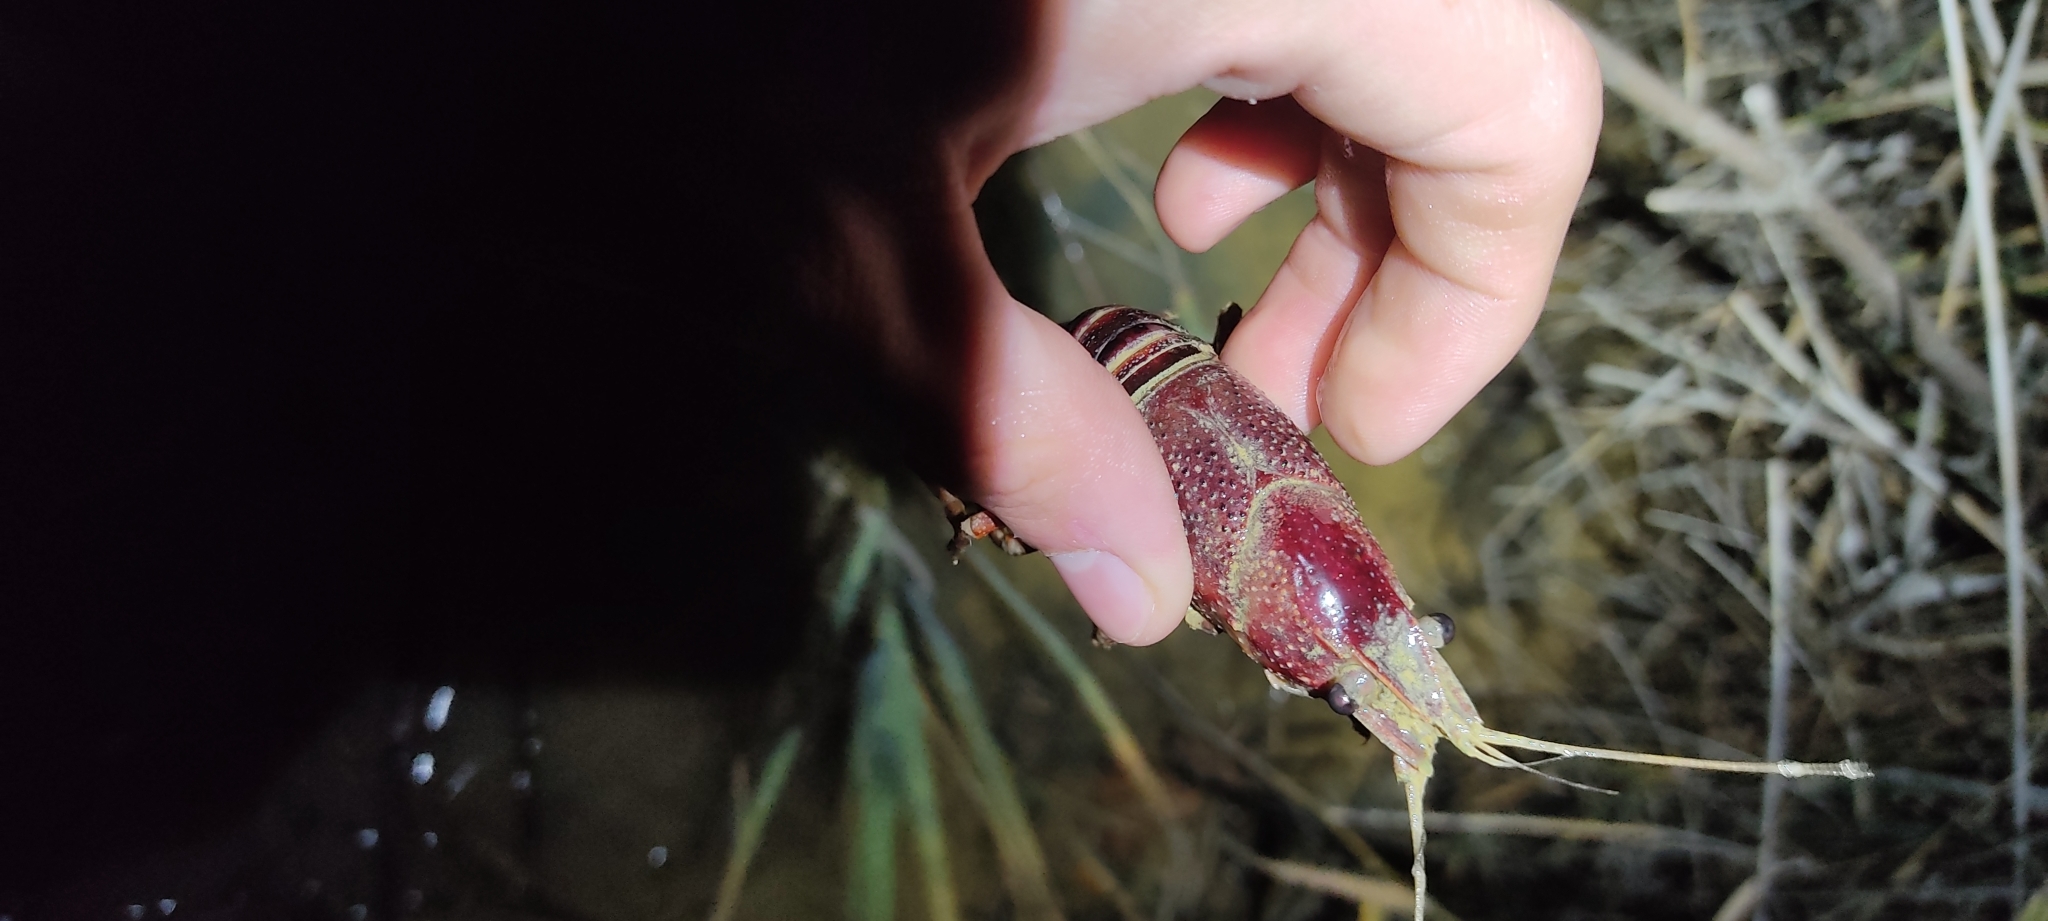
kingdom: Animalia
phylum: Arthropoda
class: Malacostraca
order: Decapoda
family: Cambaridae
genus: Procambarus
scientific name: Procambarus clarkii
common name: Red swamp crayfish
